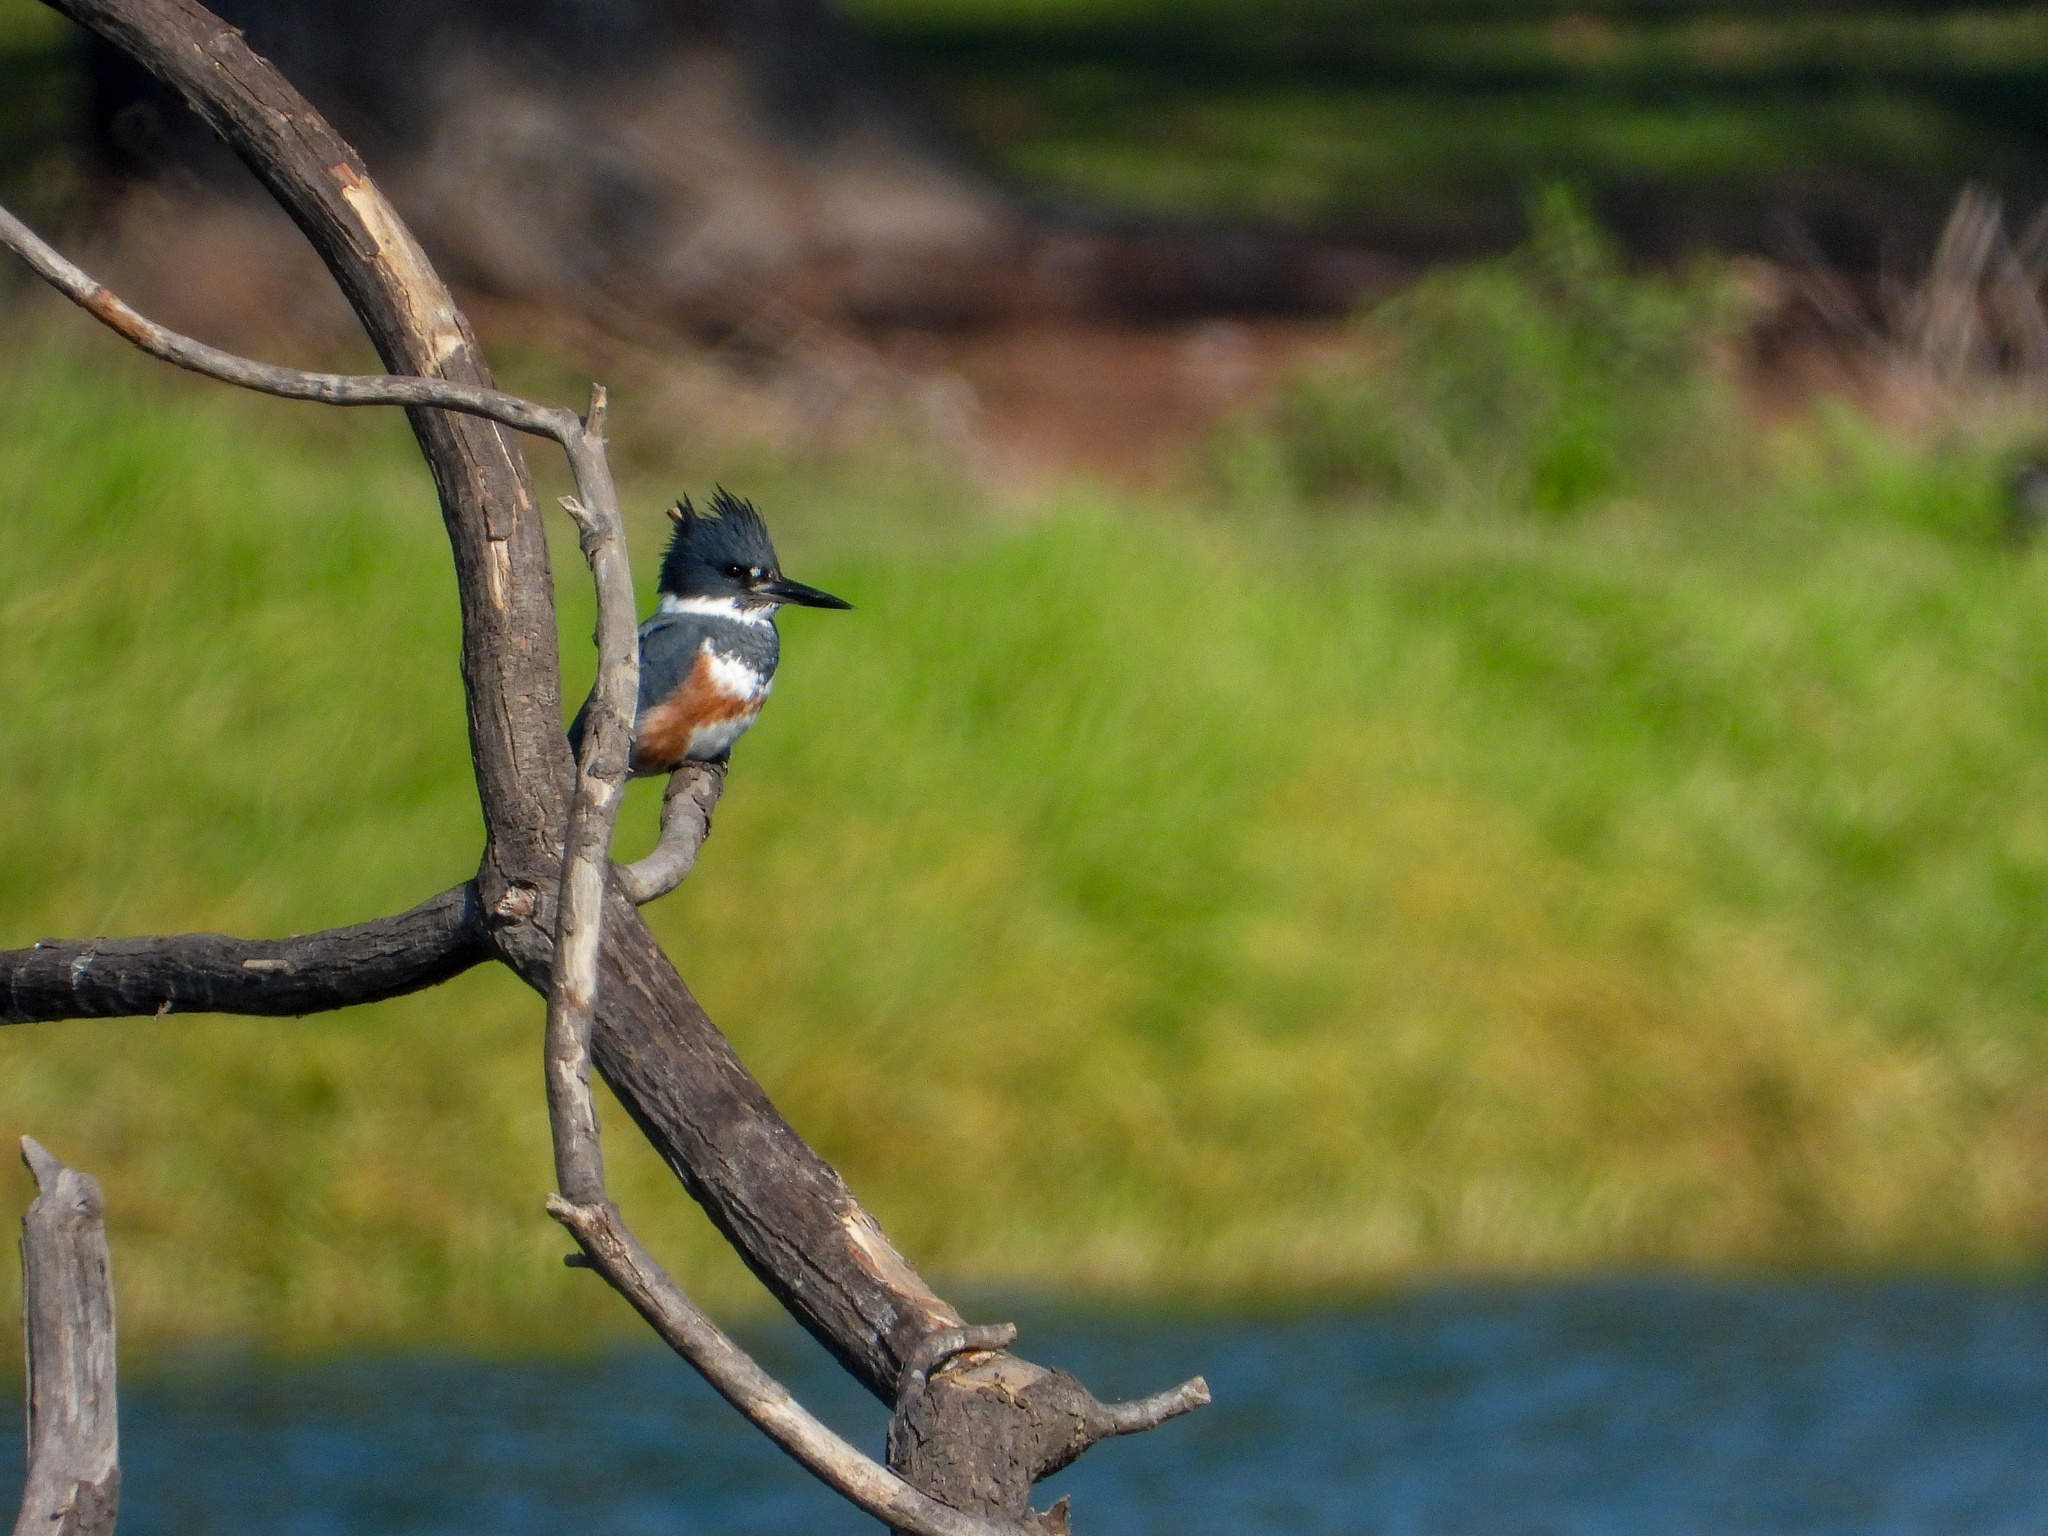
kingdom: Animalia
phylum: Chordata
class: Aves
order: Coraciiformes
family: Alcedinidae
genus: Megaceryle
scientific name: Megaceryle alcyon
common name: Belted kingfisher
